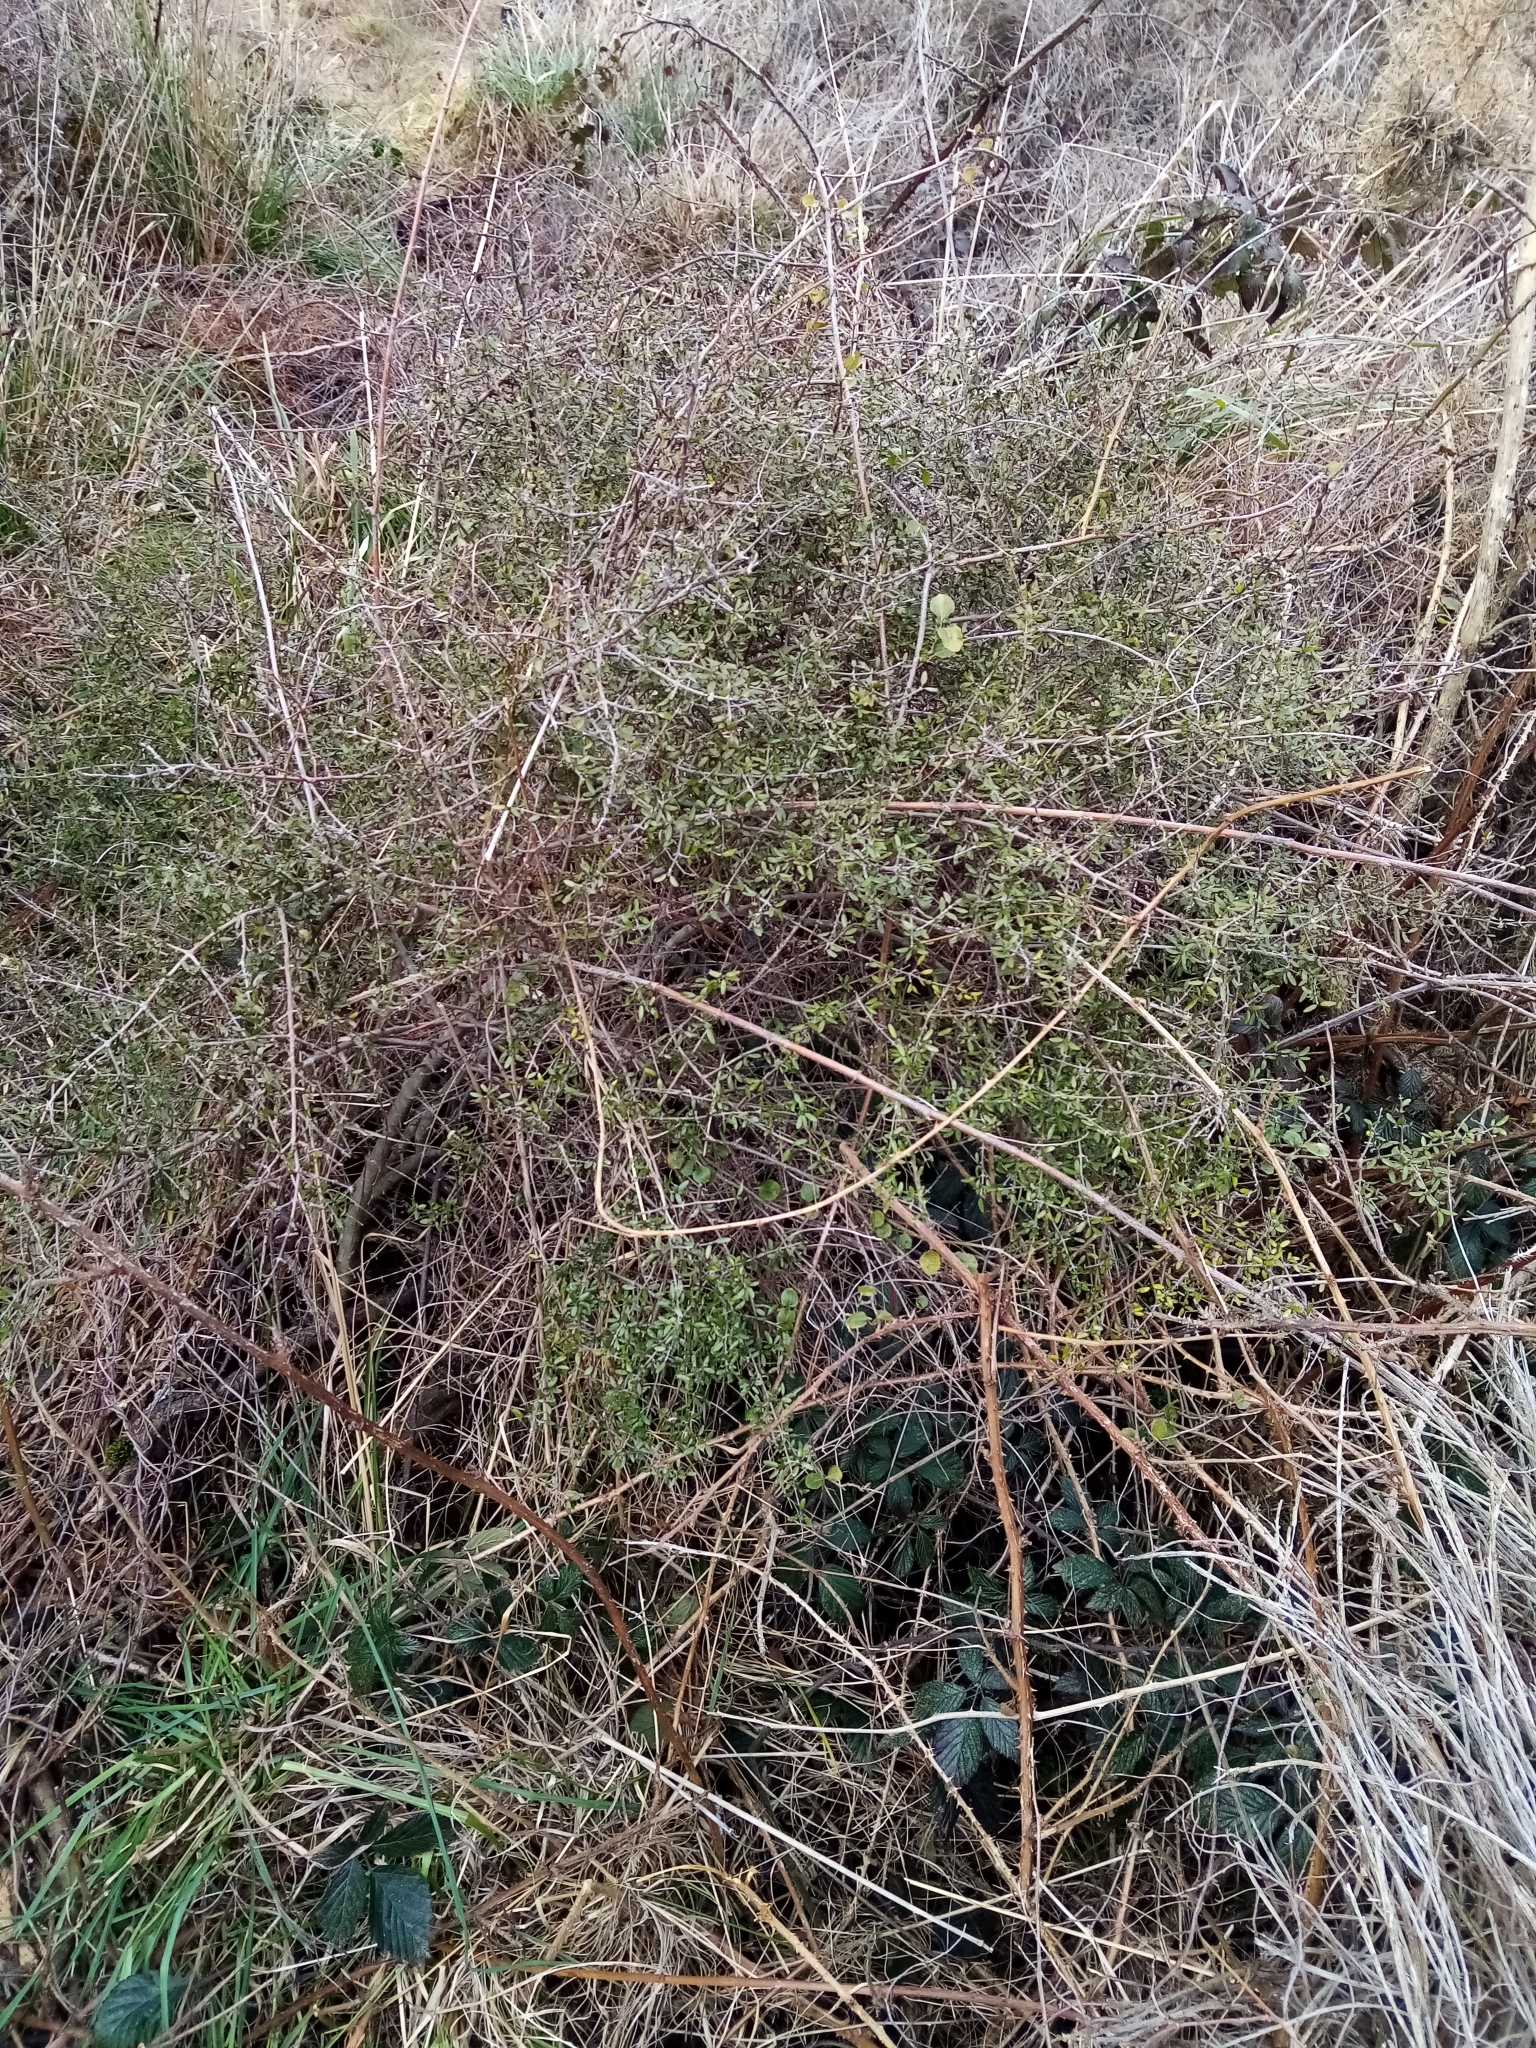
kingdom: Plantae
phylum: Tracheophyta
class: Magnoliopsida
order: Gentianales
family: Rubiaceae
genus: Coprosma
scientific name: Coprosma propinqua
